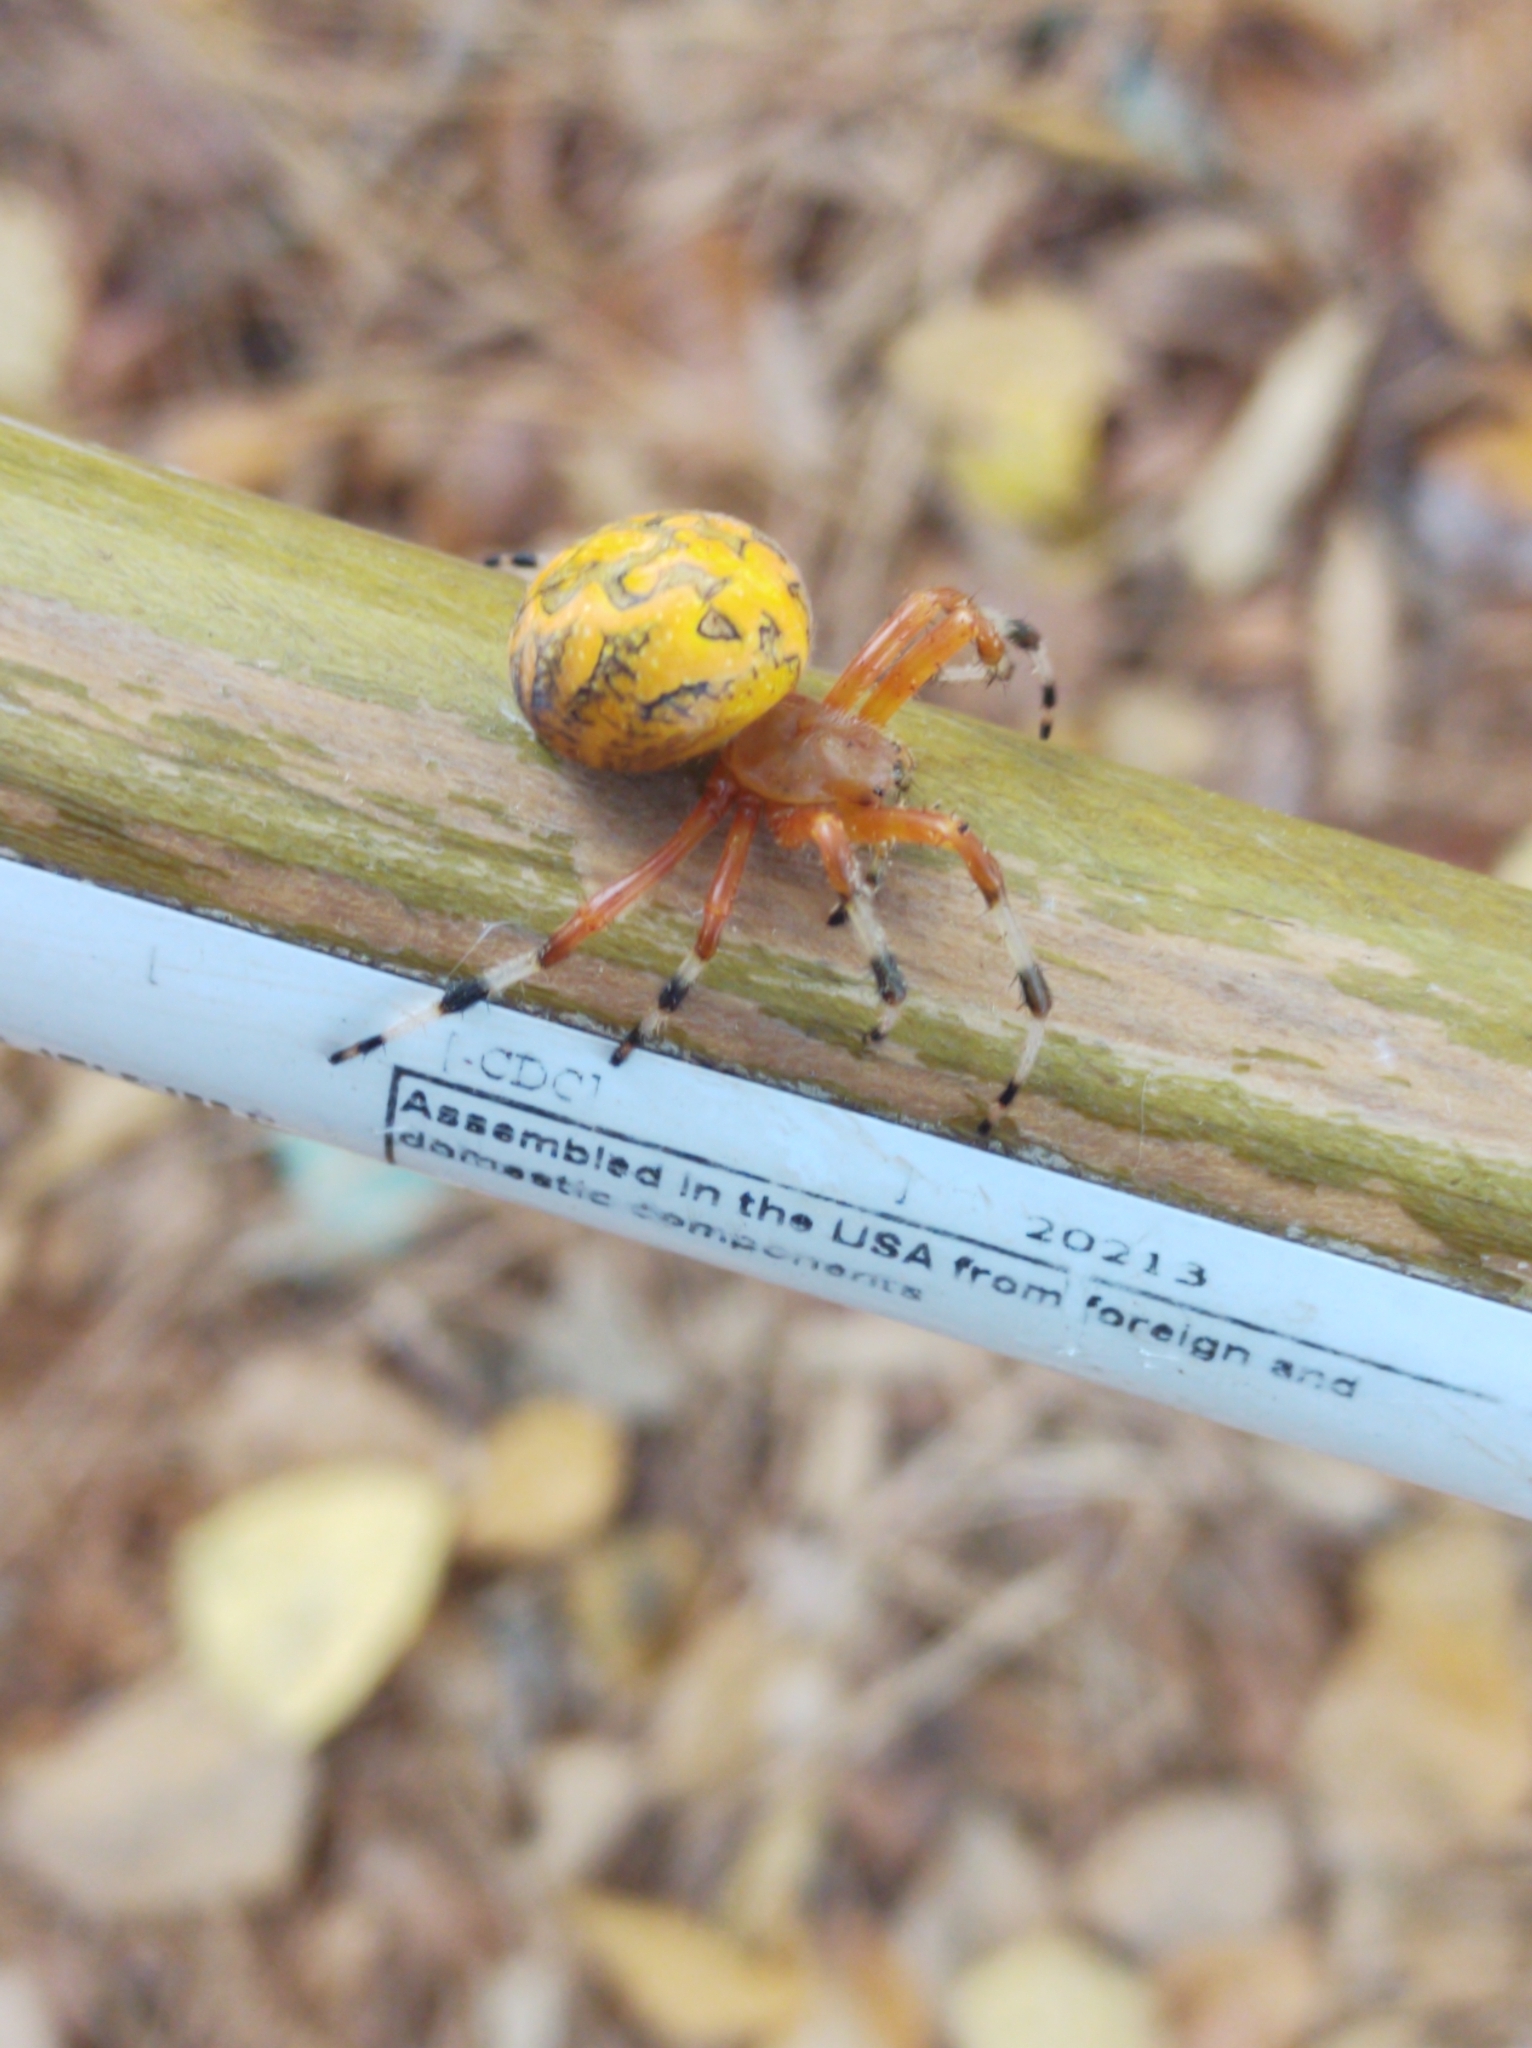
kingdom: Animalia
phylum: Arthropoda
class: Arachnida
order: Araneae
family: Araneidae
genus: Araneus
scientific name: Araneus marmoreus
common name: Marbled orbweaver
